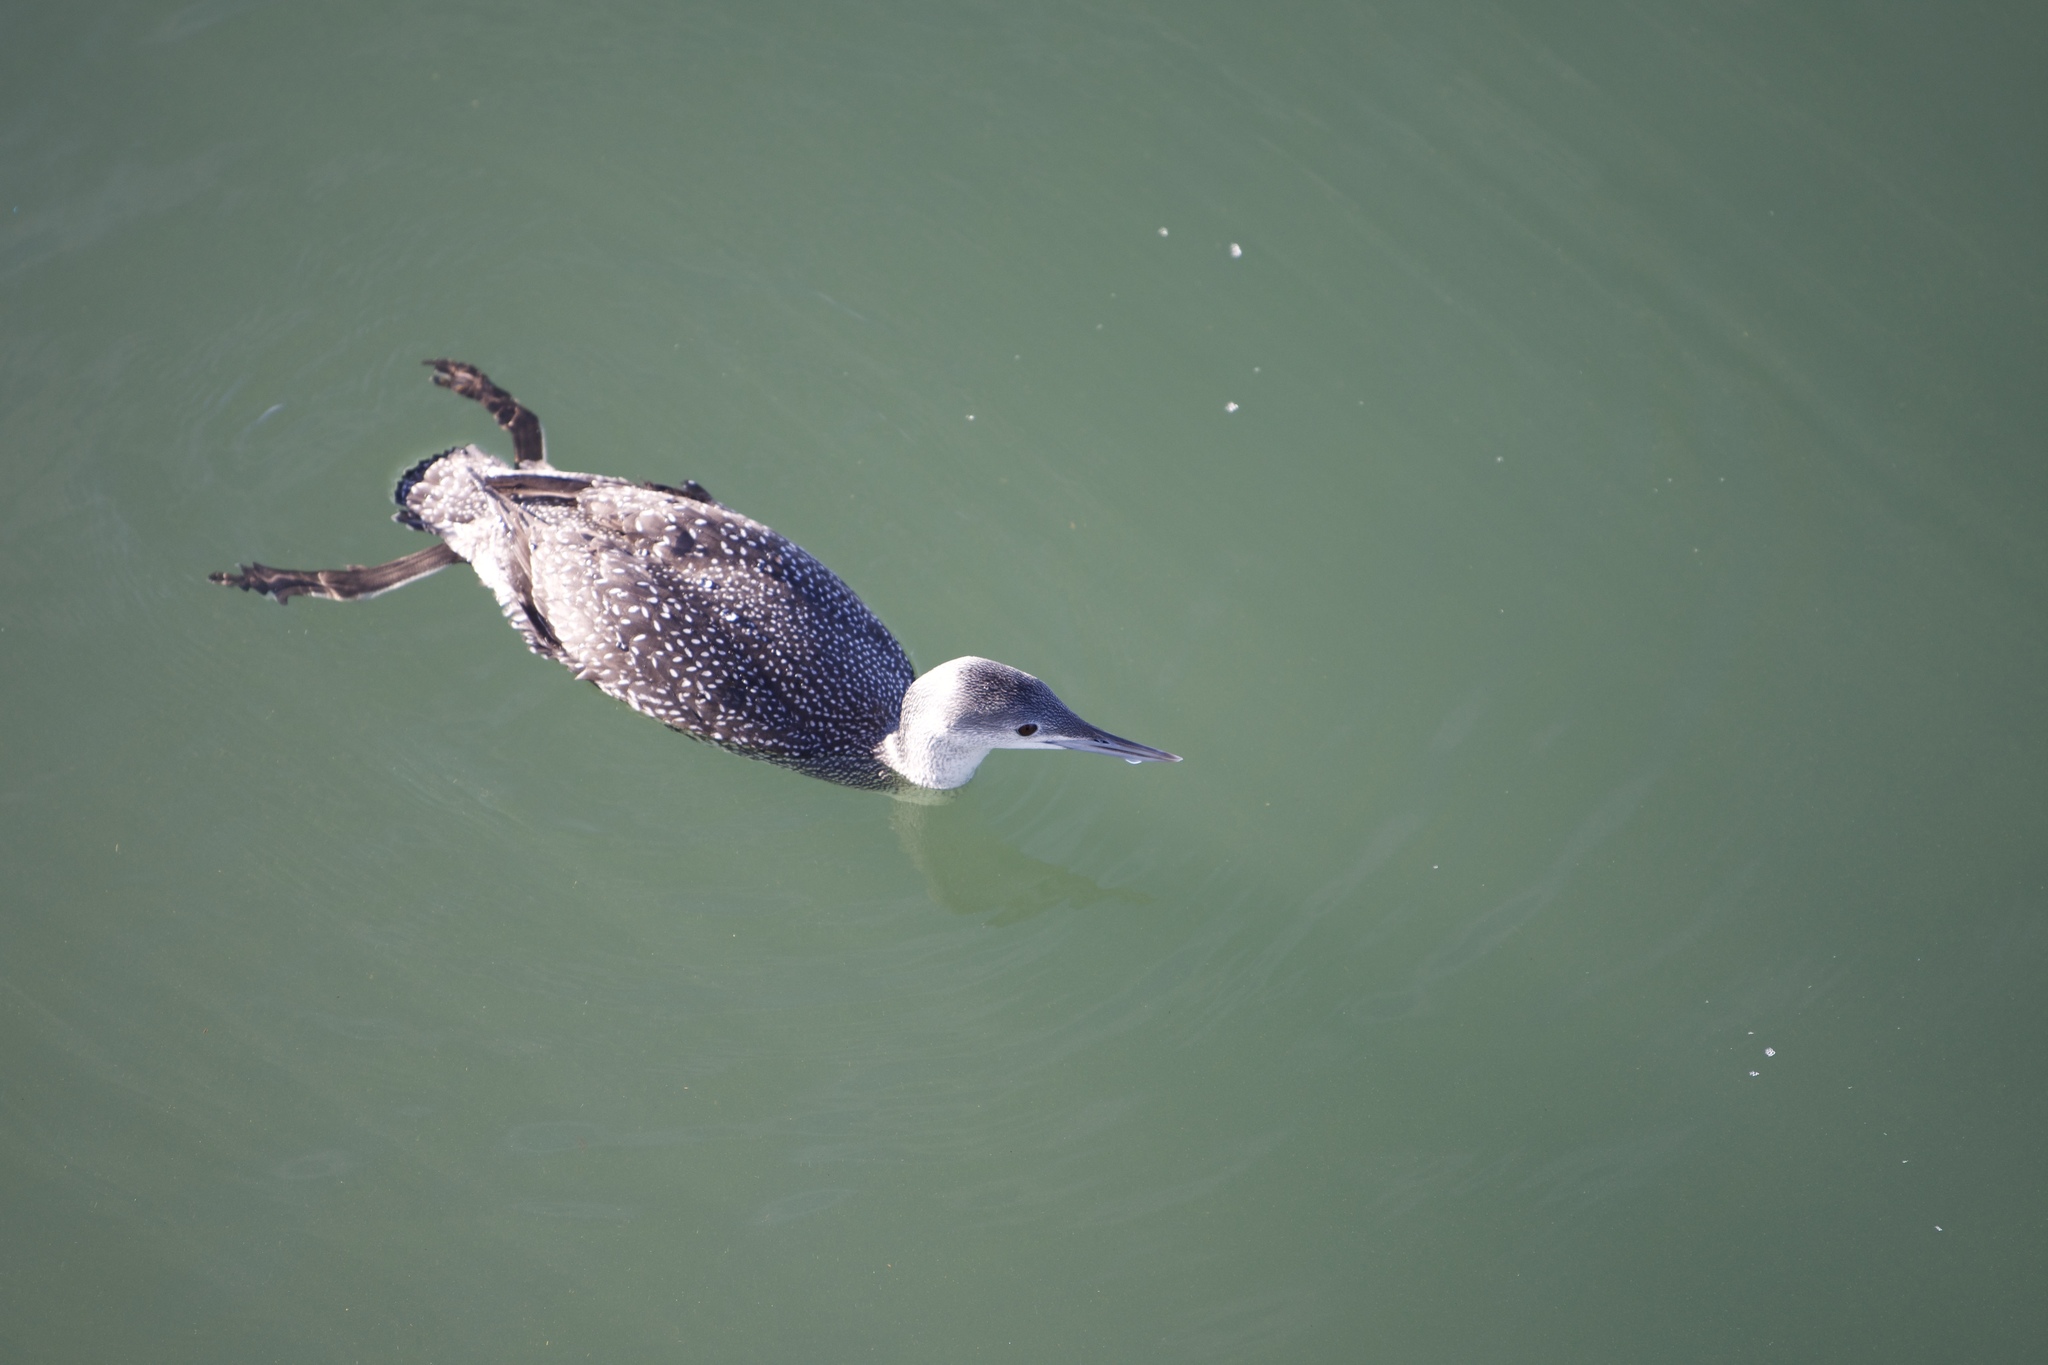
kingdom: Animalia
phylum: Chordata
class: Aves
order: Gaviiformes
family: Gaviidae
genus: Gavia
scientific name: Gavia stellata
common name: Red-throated loon
